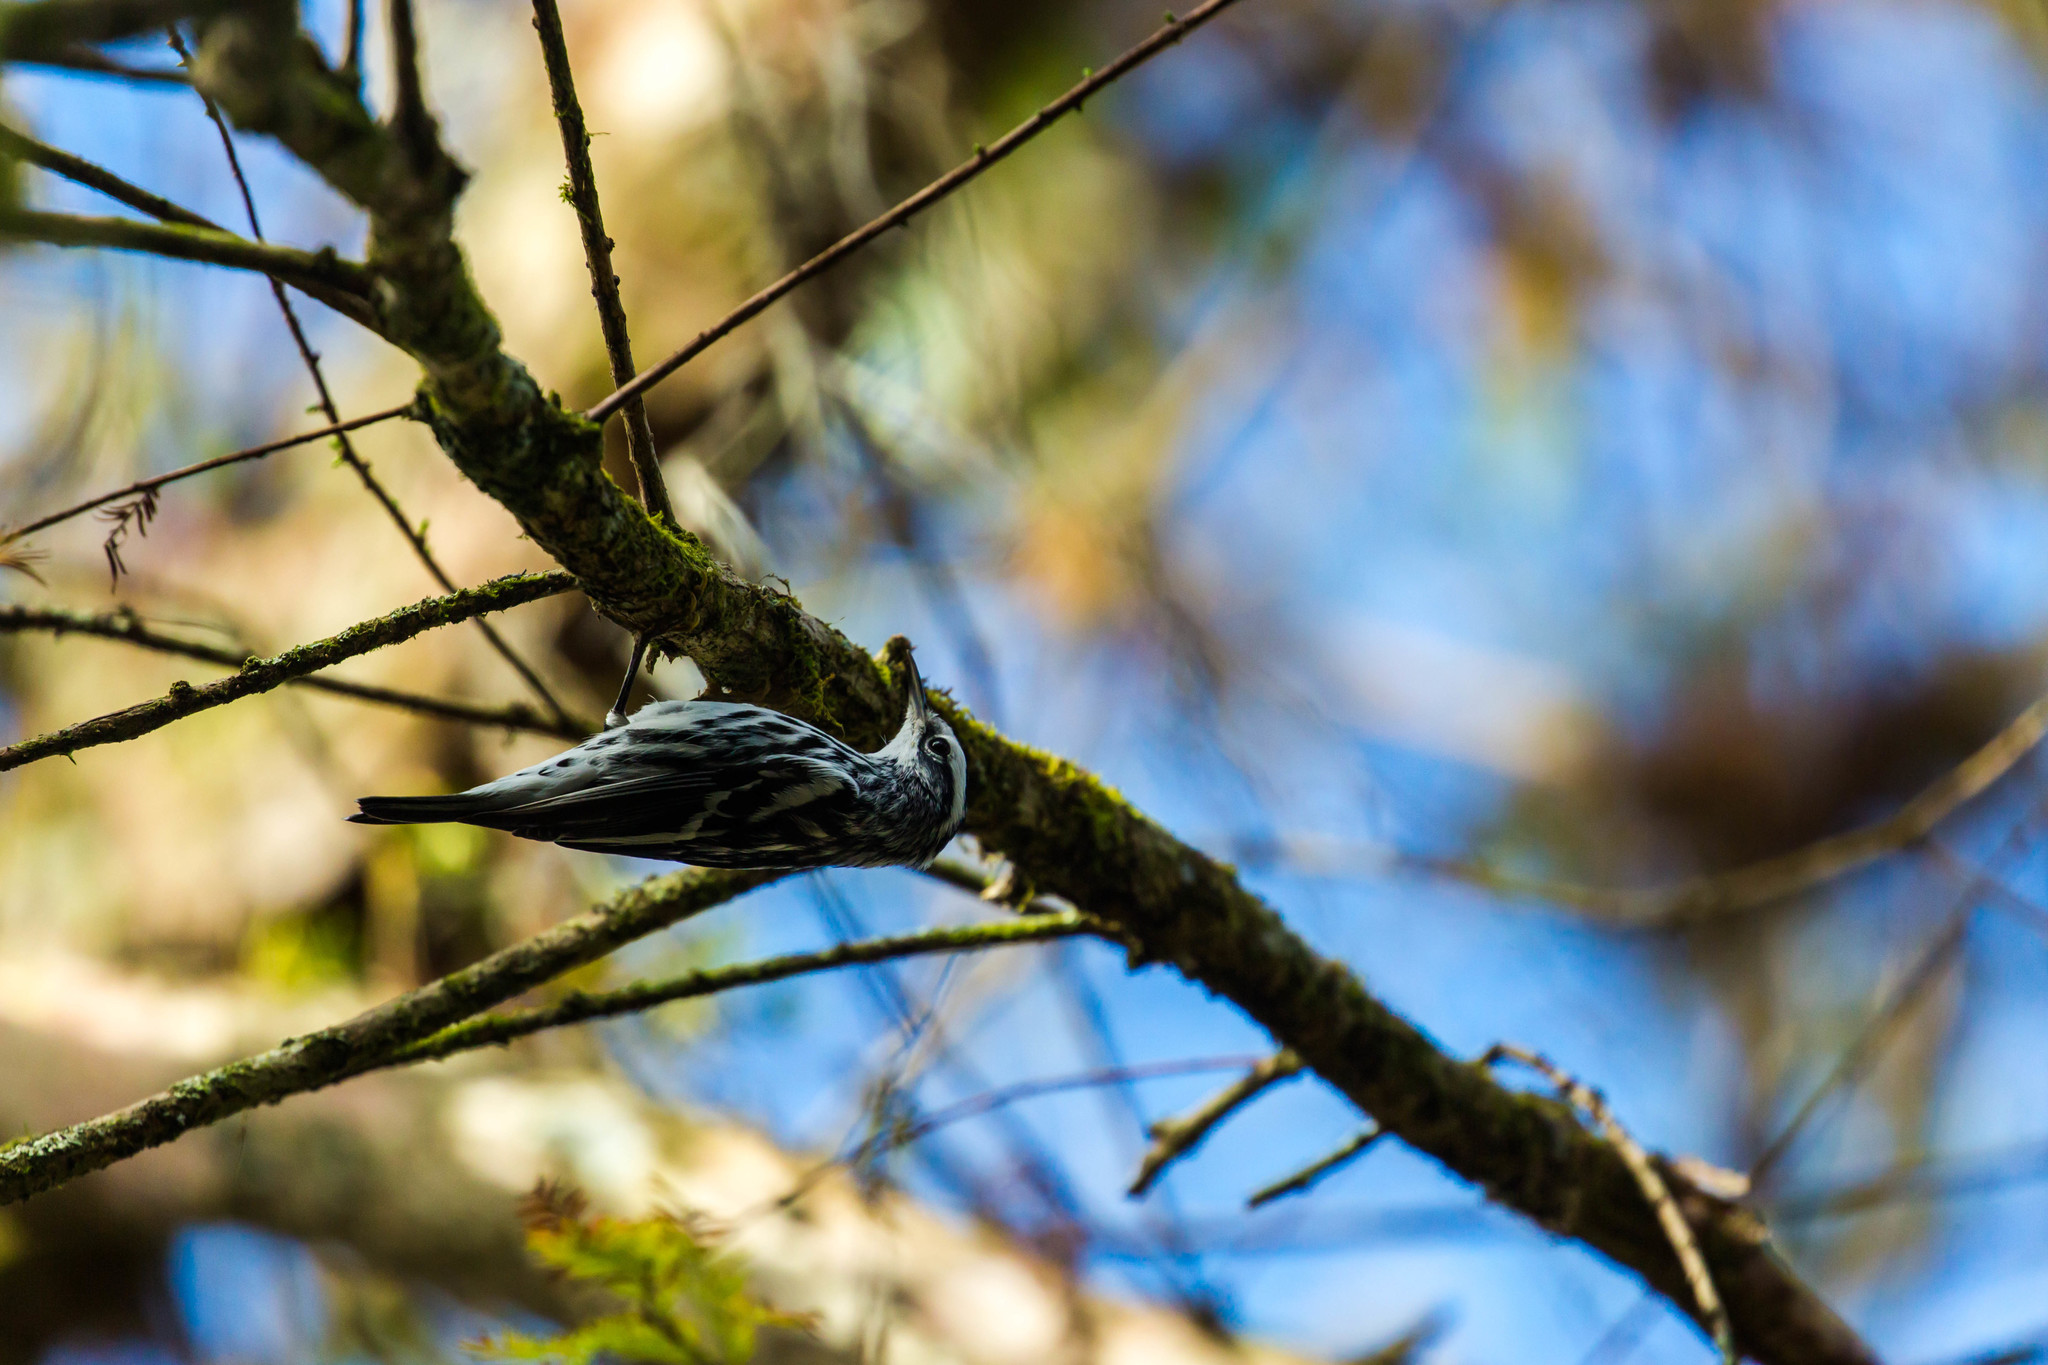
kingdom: Animalia
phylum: Chordata
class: Aves
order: Passeriformes
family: Parulidae
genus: Mniotilta
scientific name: Mniotilta varia
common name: Black-and-white warbler
